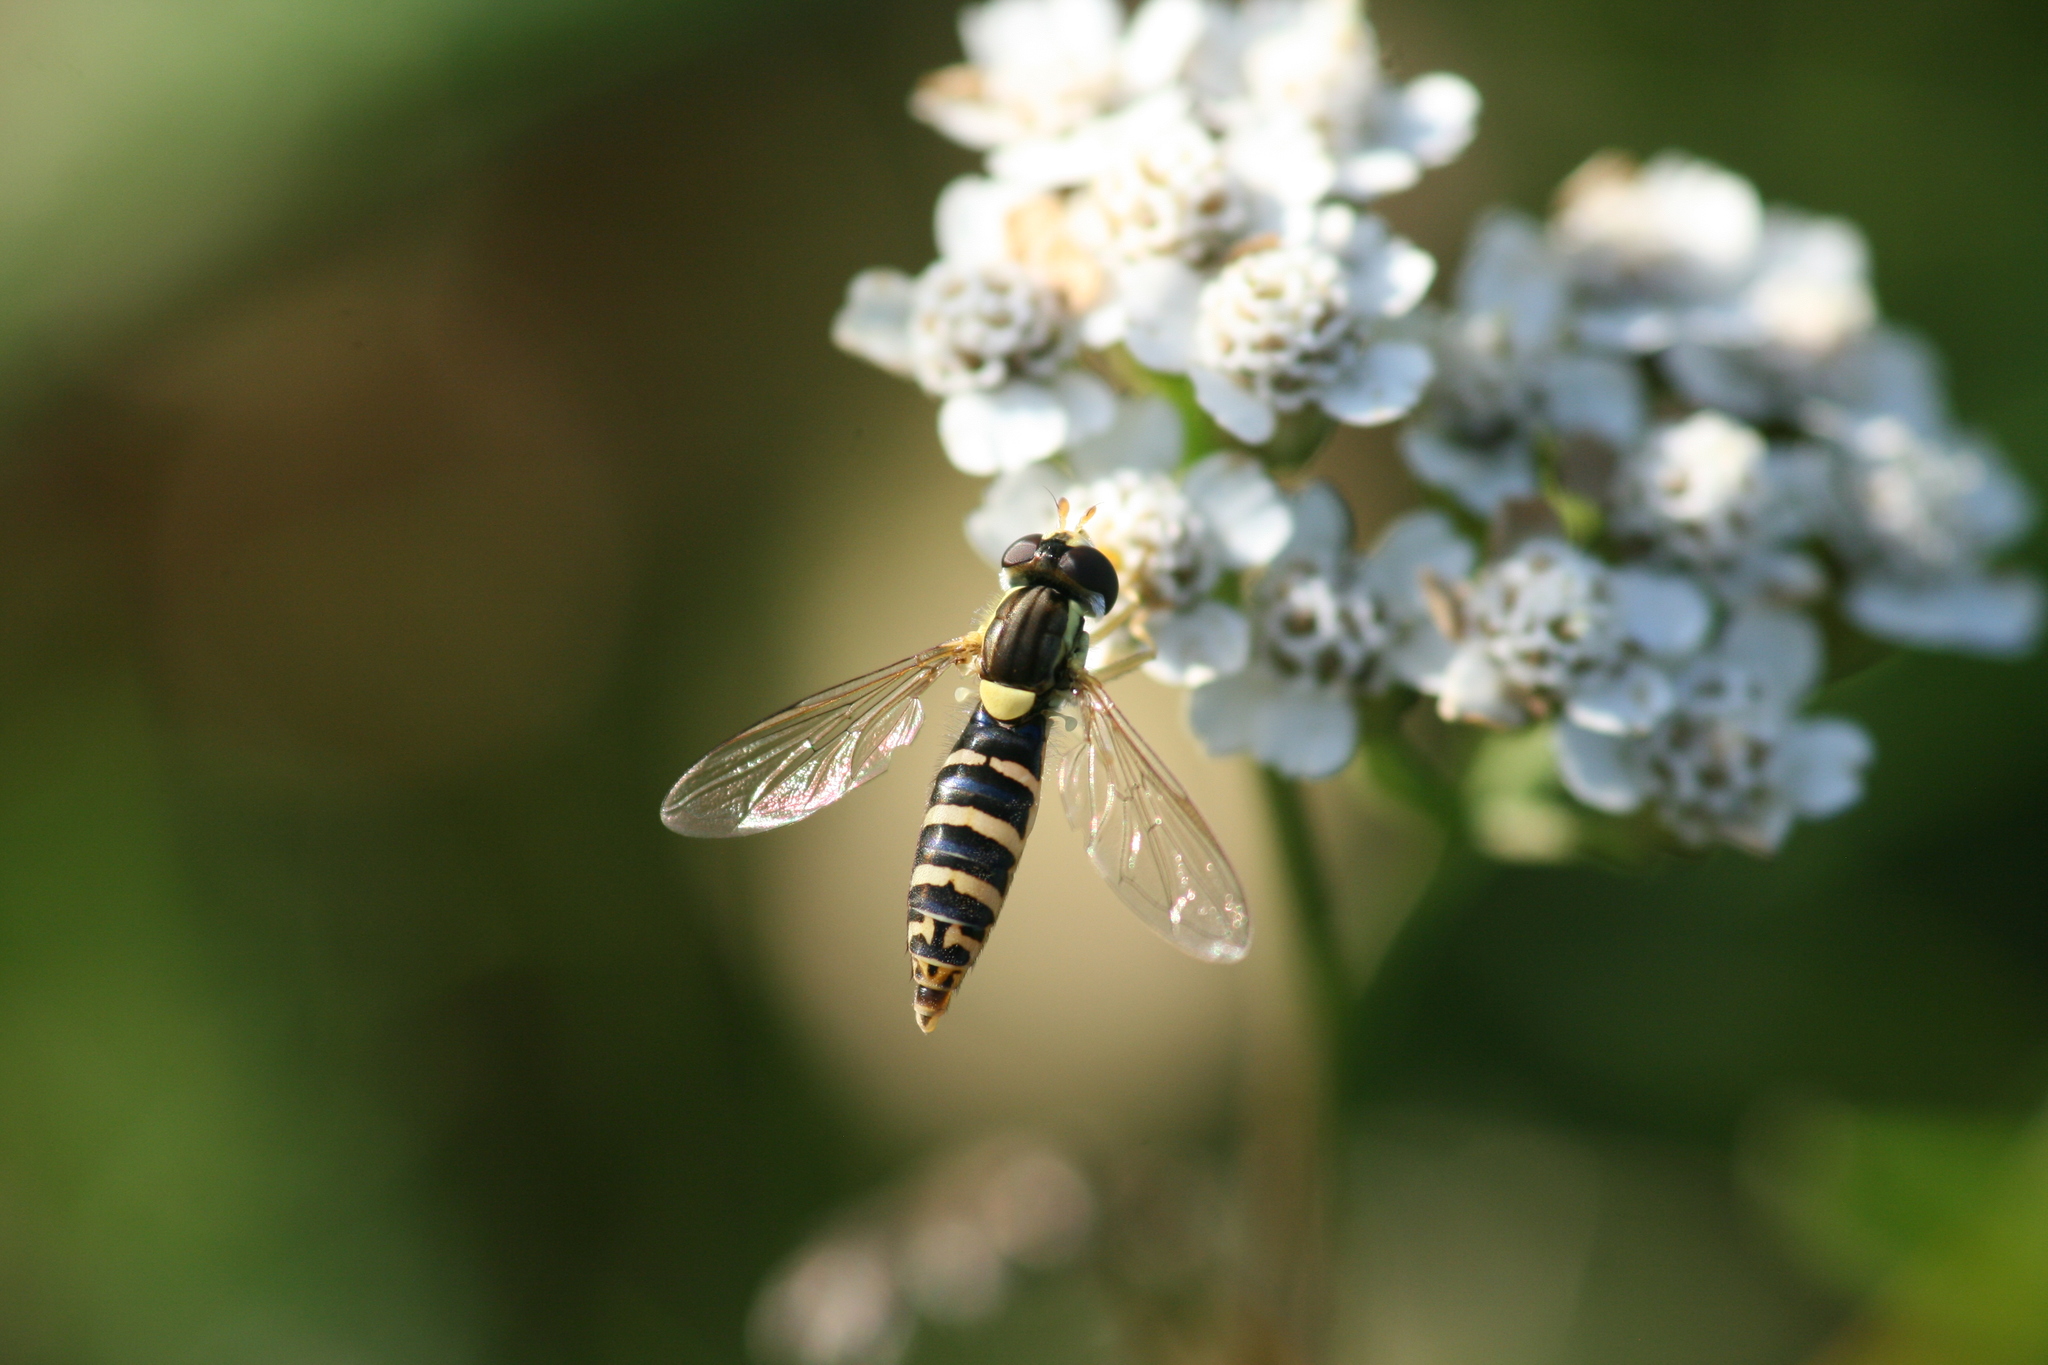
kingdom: Animalia
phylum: Arthropoda
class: Insecta
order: Diptera
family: Syrphidae
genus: Sphaerophoria
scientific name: Sphaerophoria
